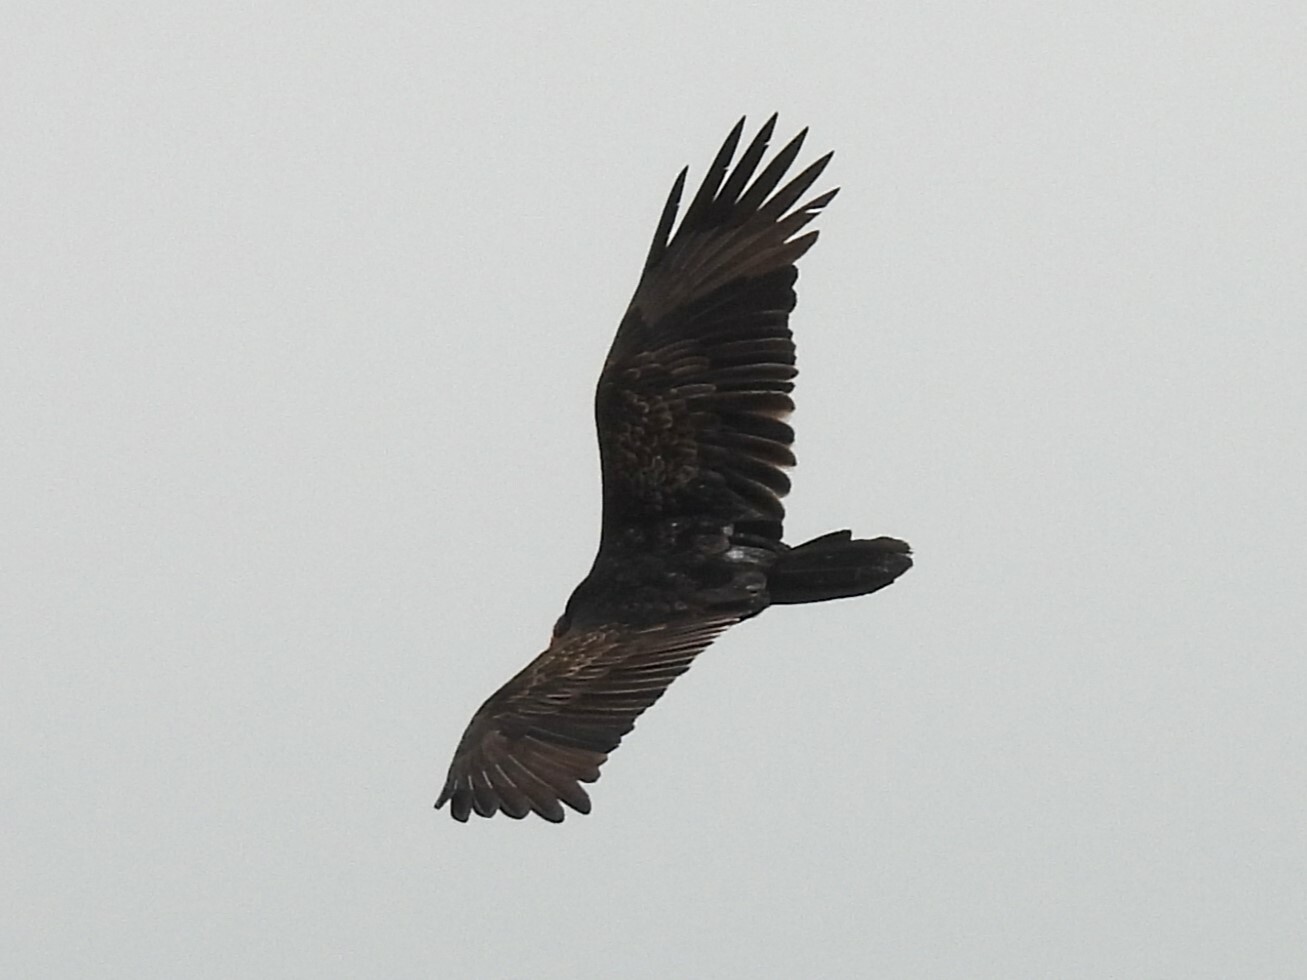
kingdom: Animalia
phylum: Chordata
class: Aves
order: Accipitriformes
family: Cathartidae
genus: Cathartes
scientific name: Cathartes aura
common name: Turkey vulture
